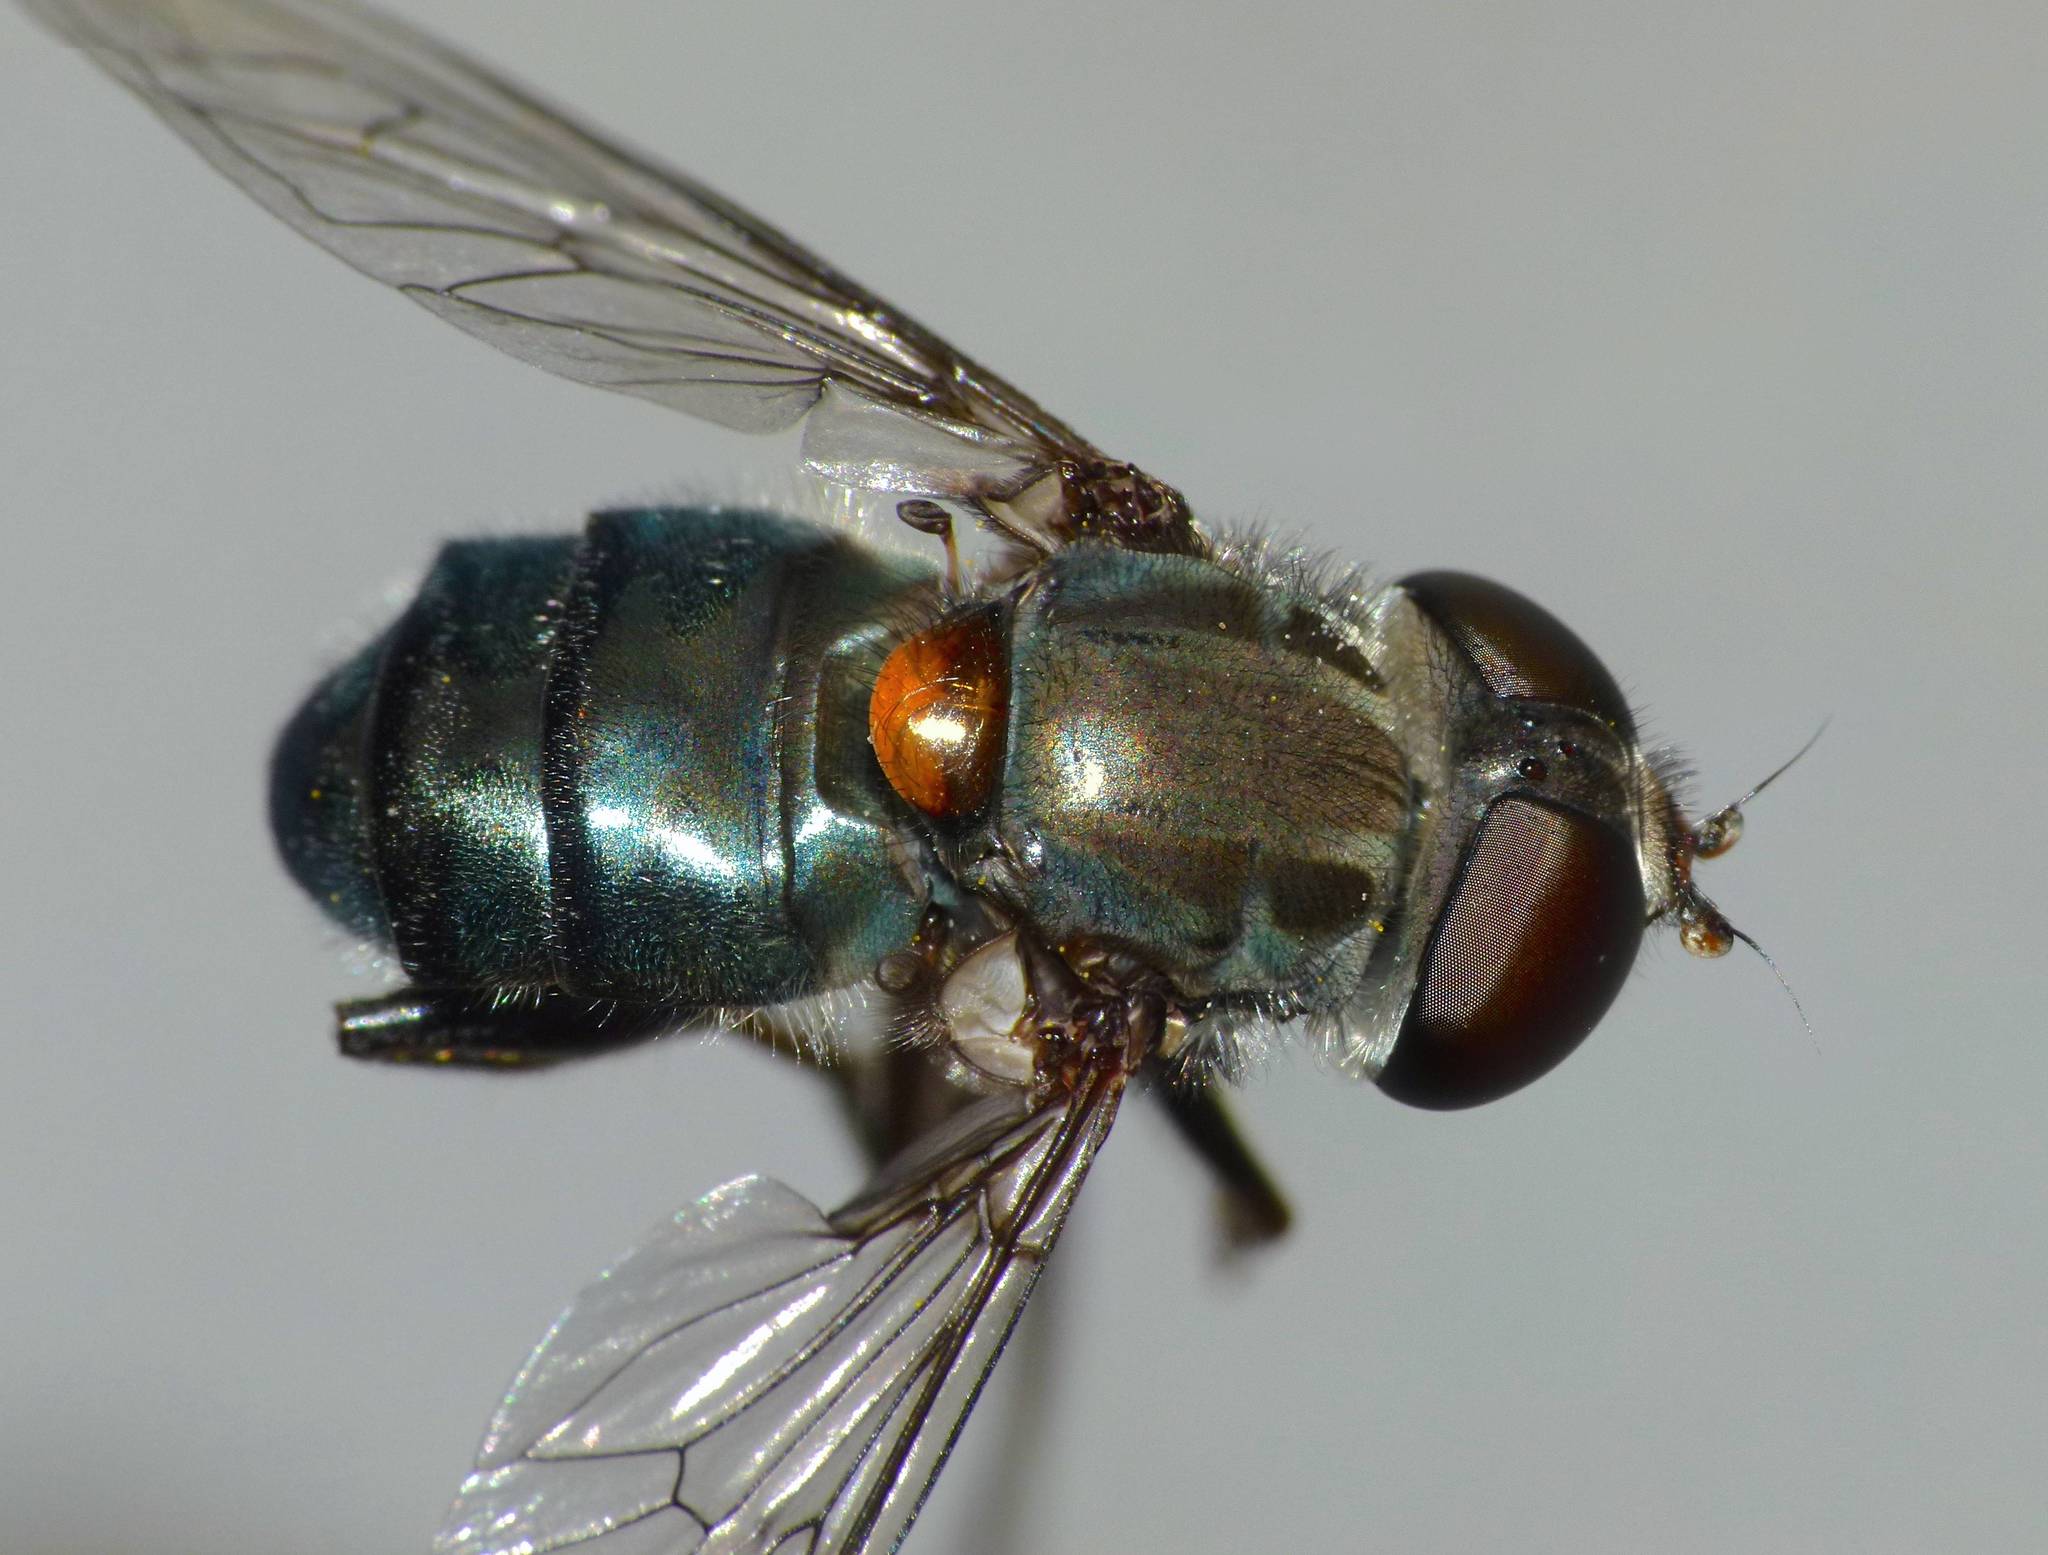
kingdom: Animalia
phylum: Arthropoda
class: Insecta
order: Diptera
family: Syrphidae
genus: Helophilus
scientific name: Helophilus hochstetteri
